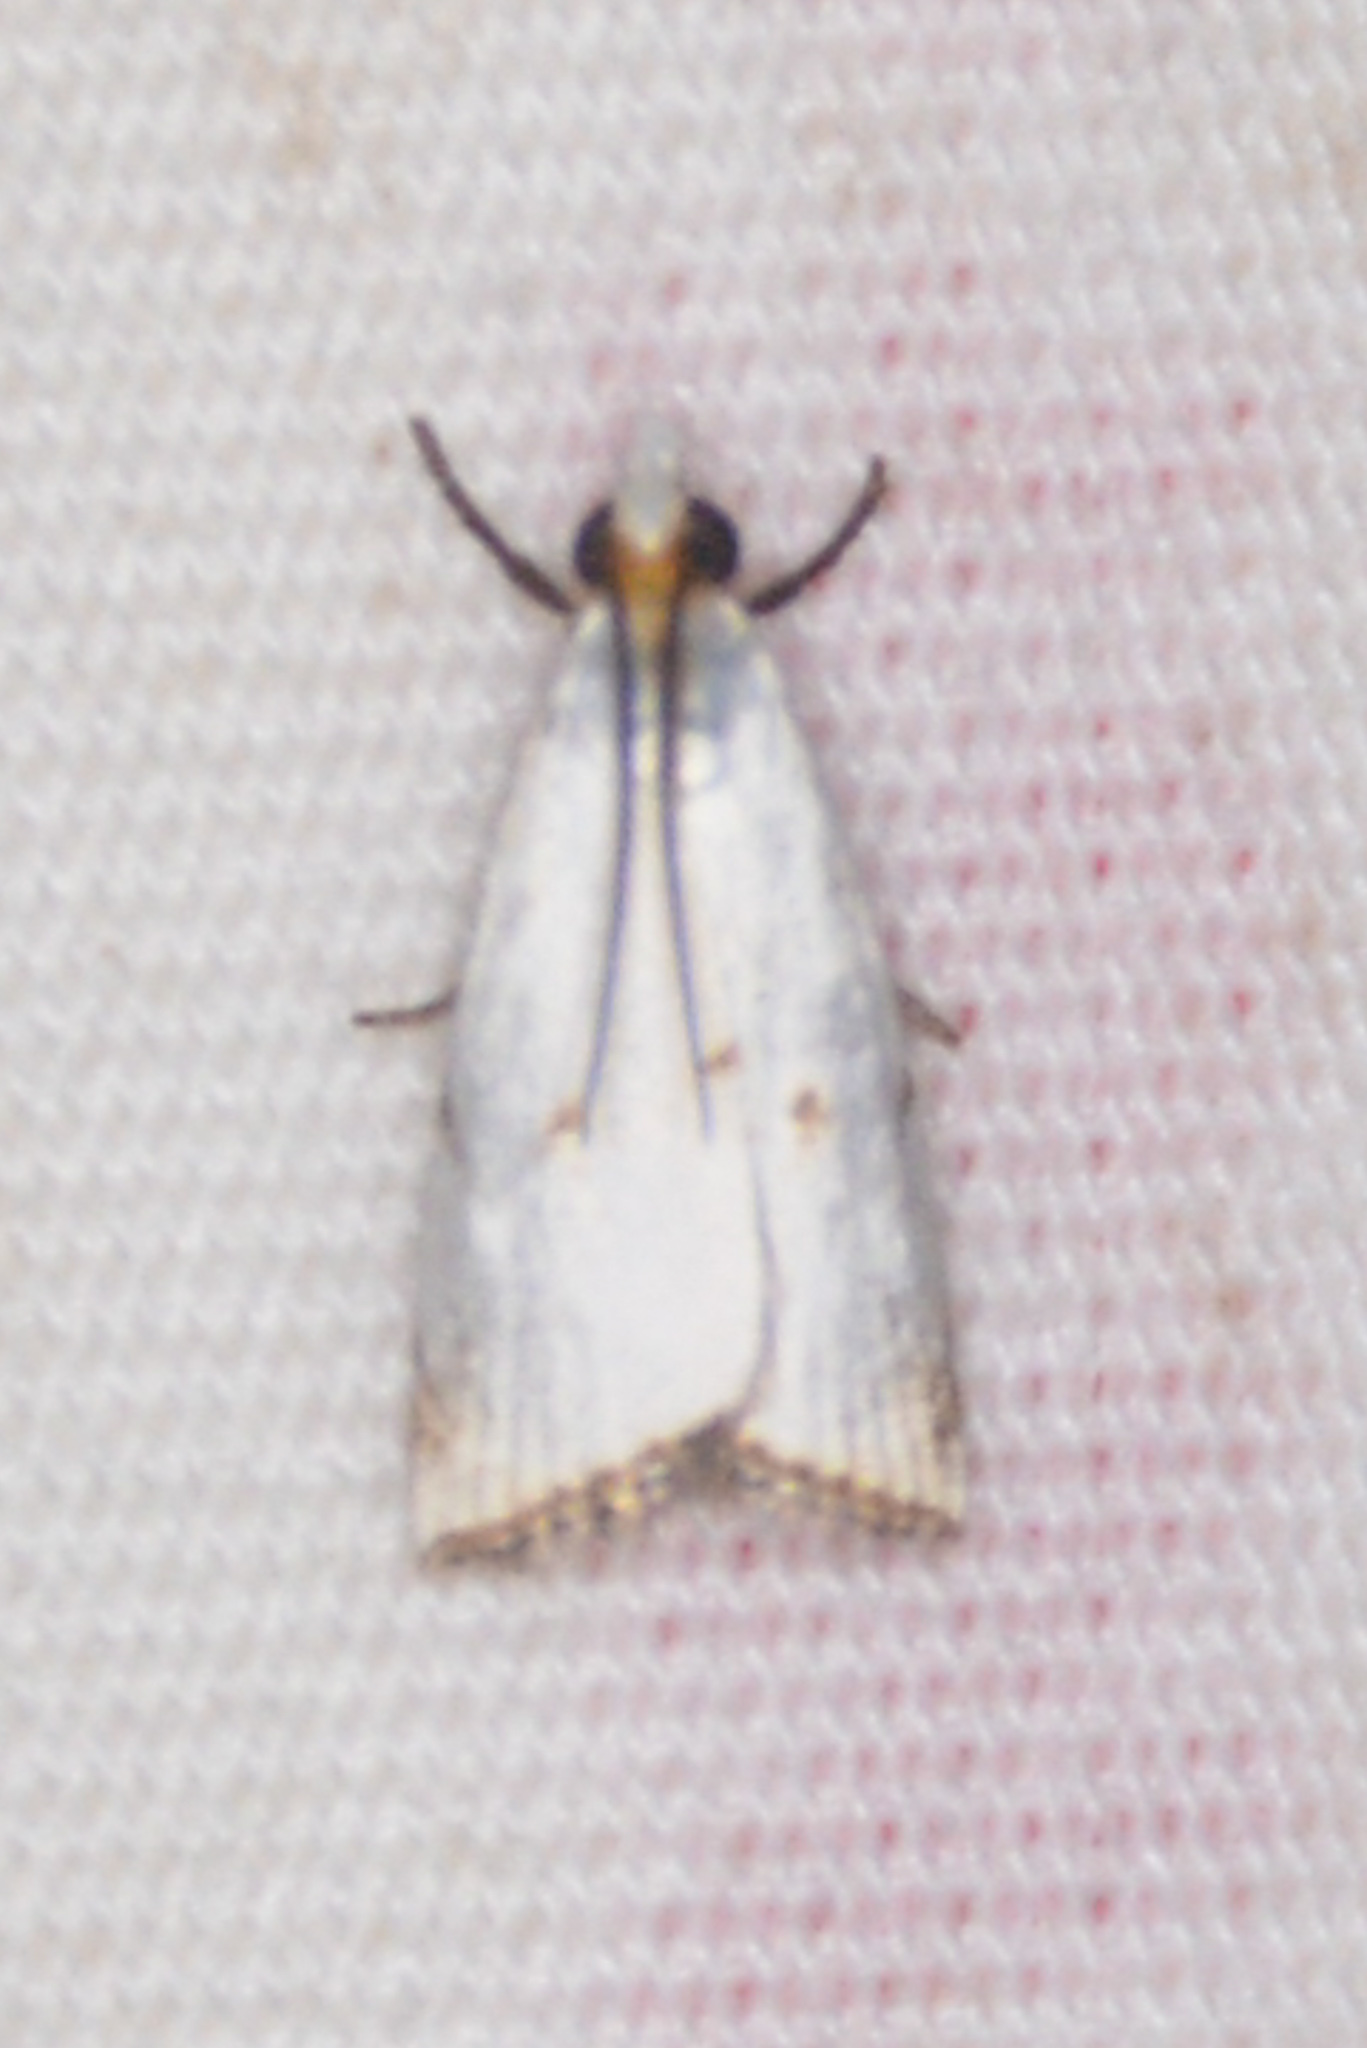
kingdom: Animalia
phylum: Arthropoda
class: Insecta
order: Lepidoptera
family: Crambidae
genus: Argyria
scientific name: Argyria pusillalis
